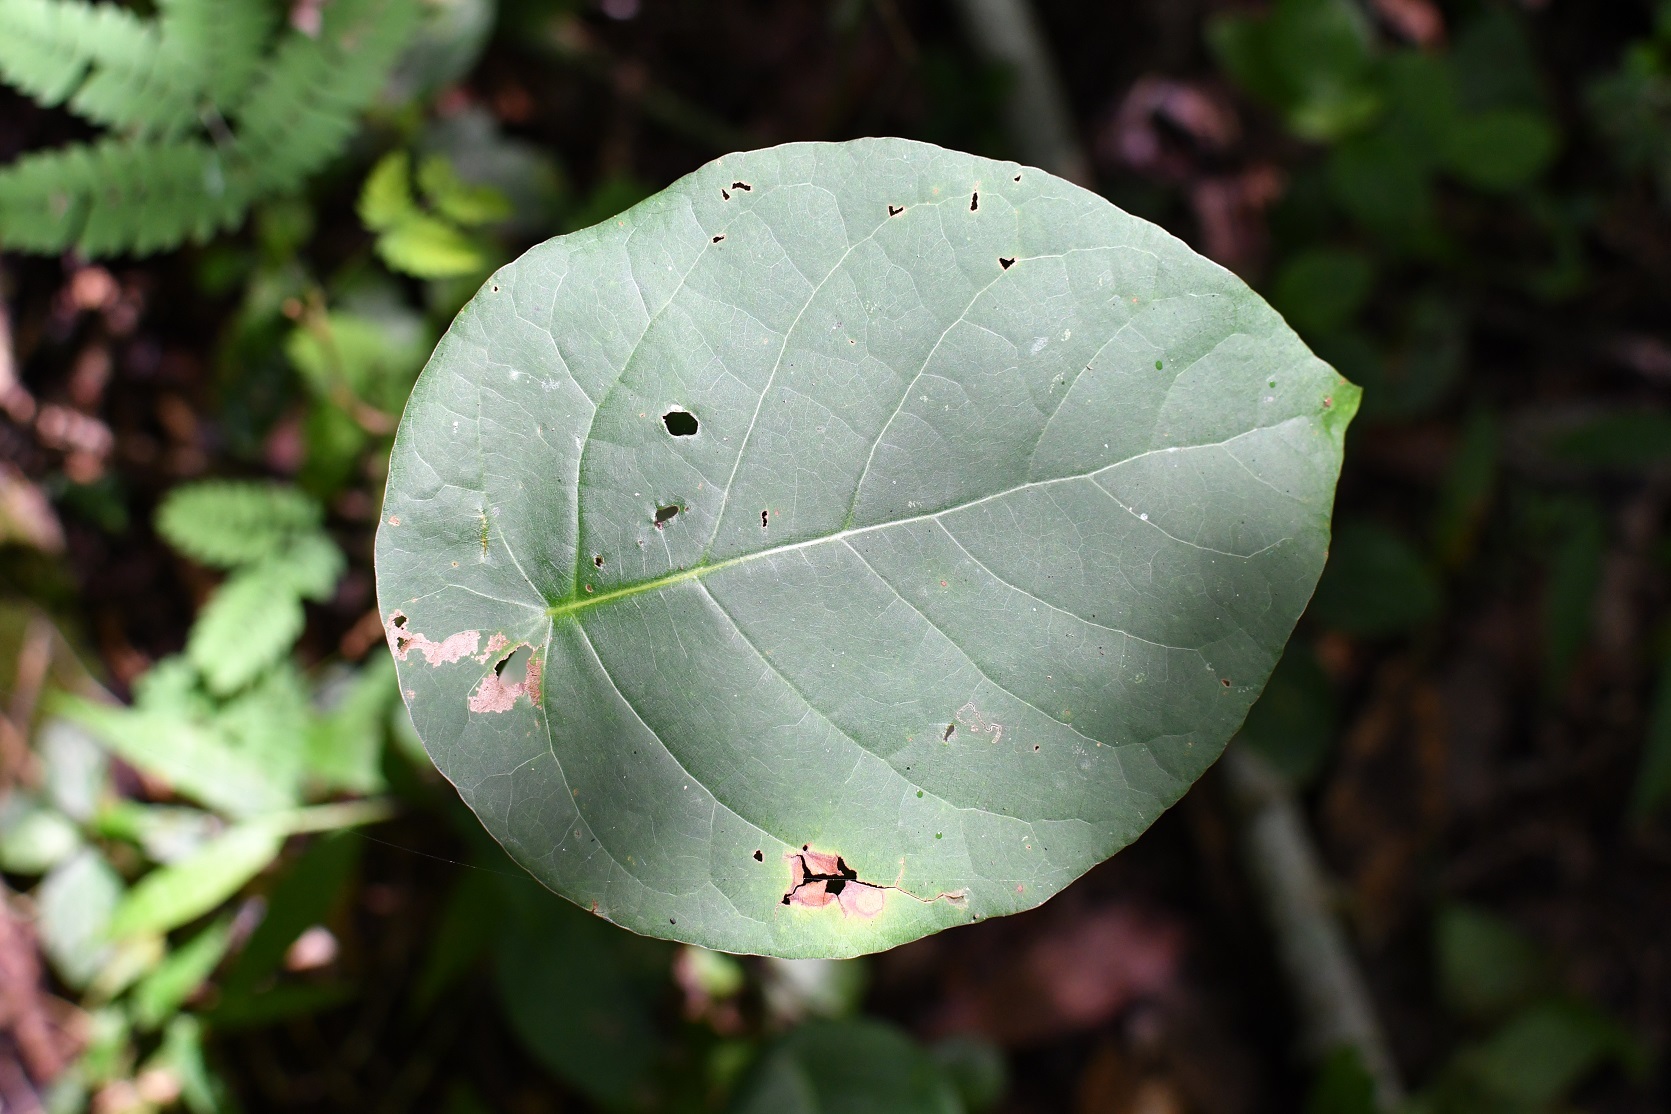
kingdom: Plantae
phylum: Tracheophyta
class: Magnoliopsida
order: Caryophyllales
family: Polygonaceae
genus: Coccoloba
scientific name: Coccoloba acapulcensis
